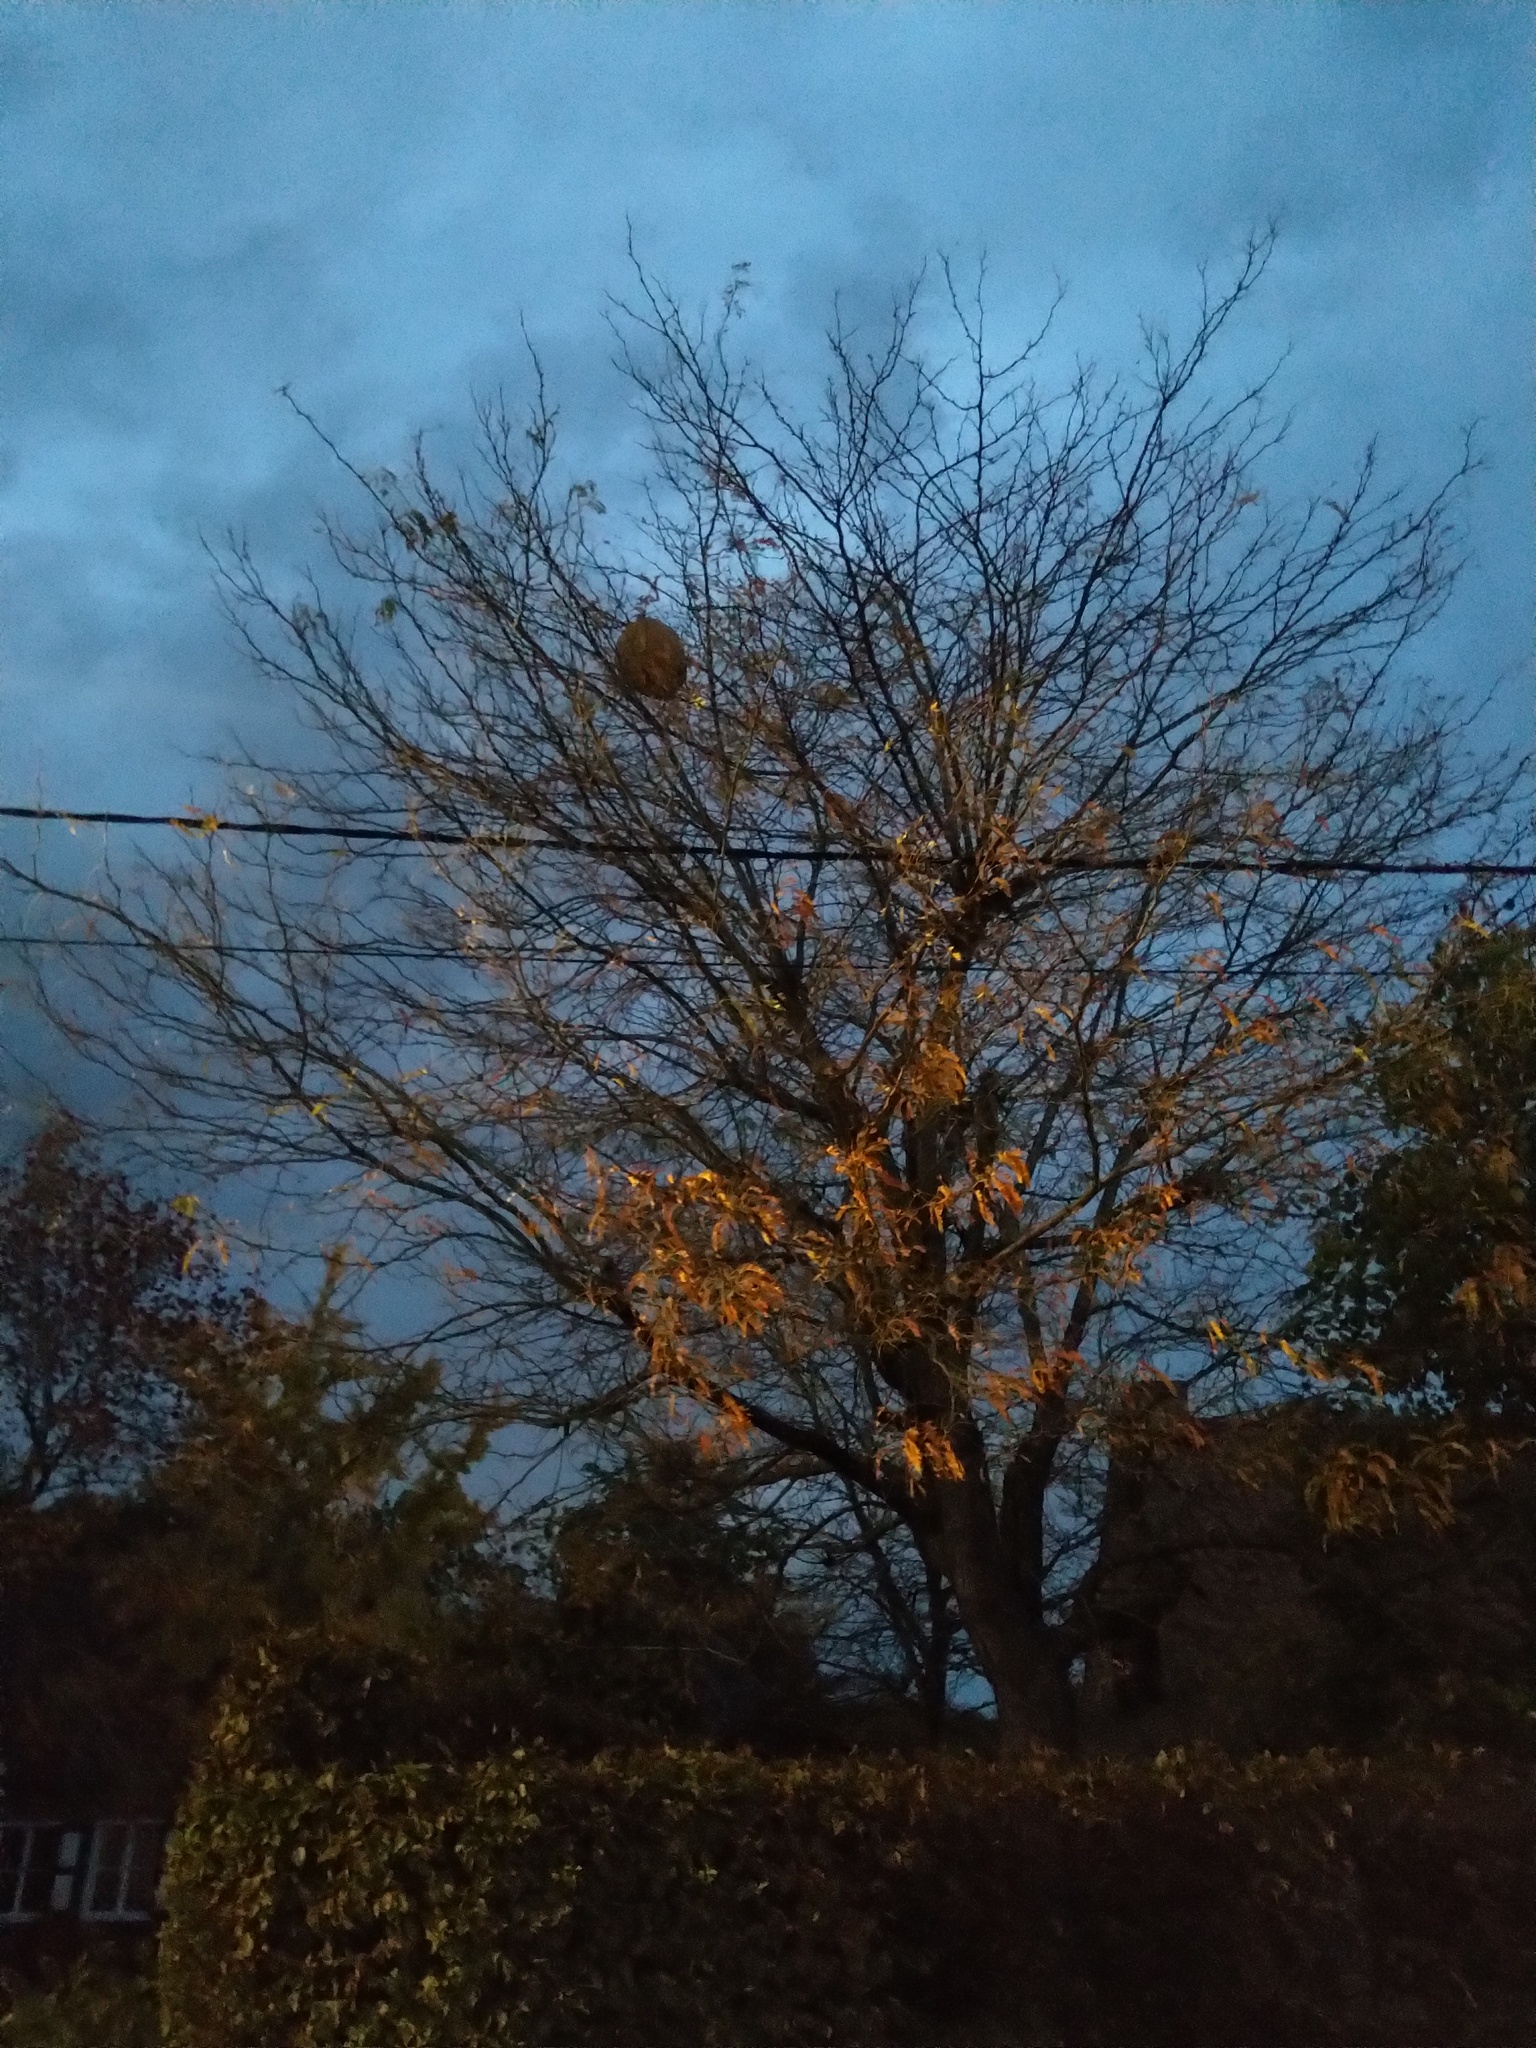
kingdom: Animalia
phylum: Arthropoda
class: Insecta
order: Hymenoptera
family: Vespidae
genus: Vespa
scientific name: Vespa velutina
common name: Asian hornet
